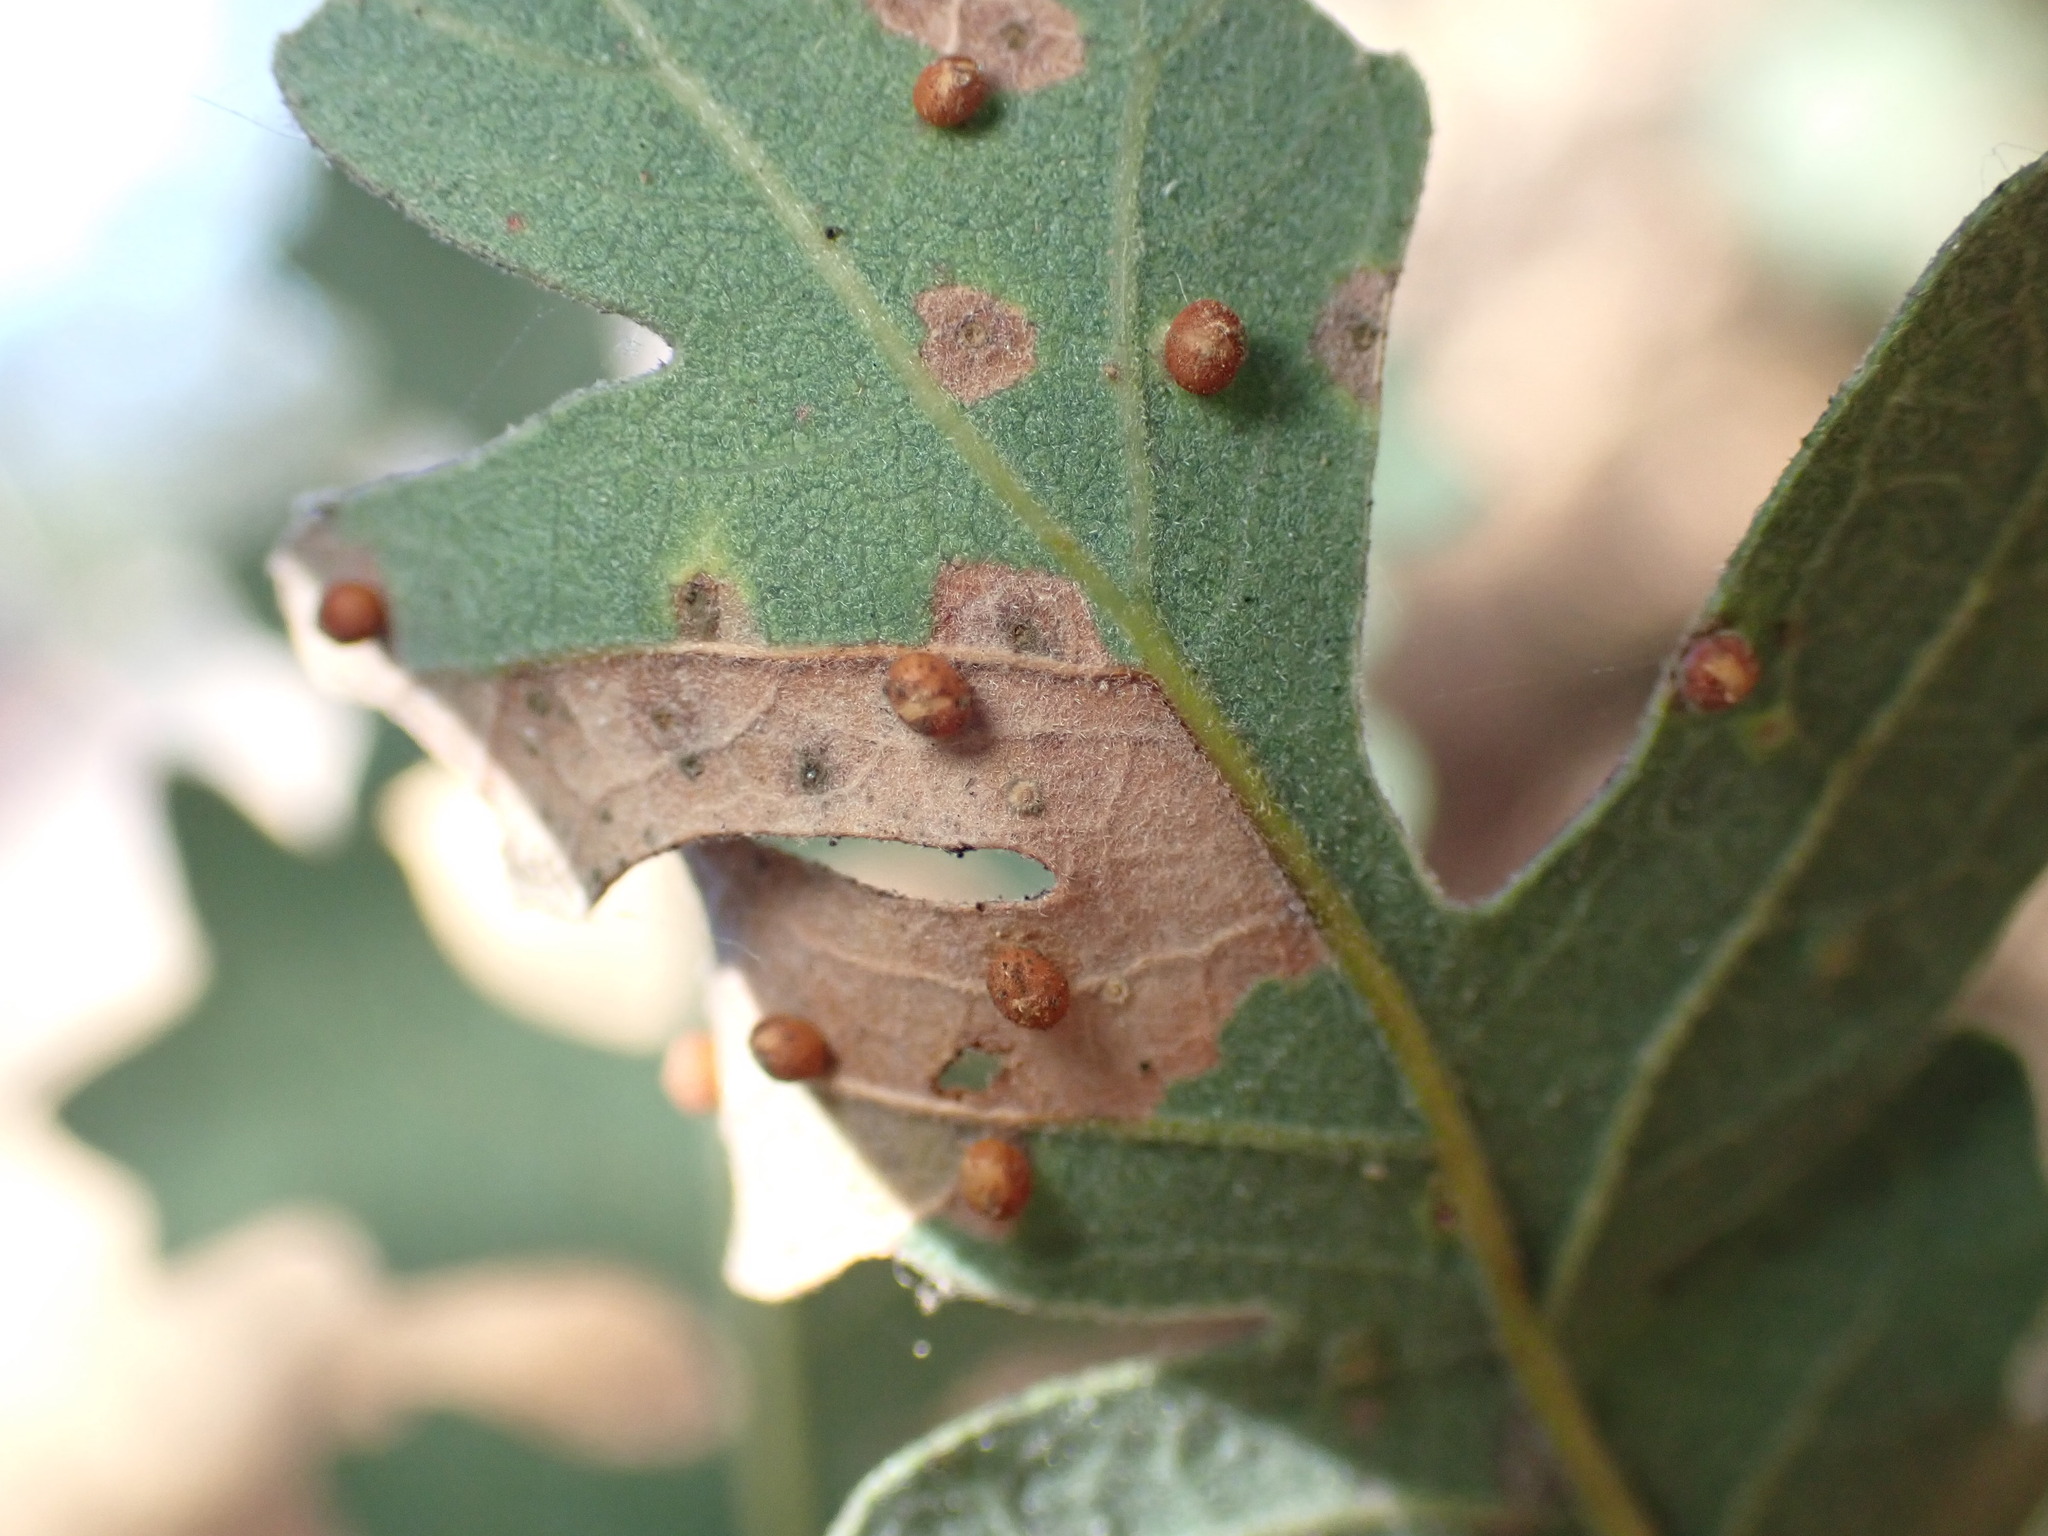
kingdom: Animalia
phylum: Arthropoda
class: Insecta
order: Hymenoptera
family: Cynipidae
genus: Neuroterus
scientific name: Neuroterus saltarius
